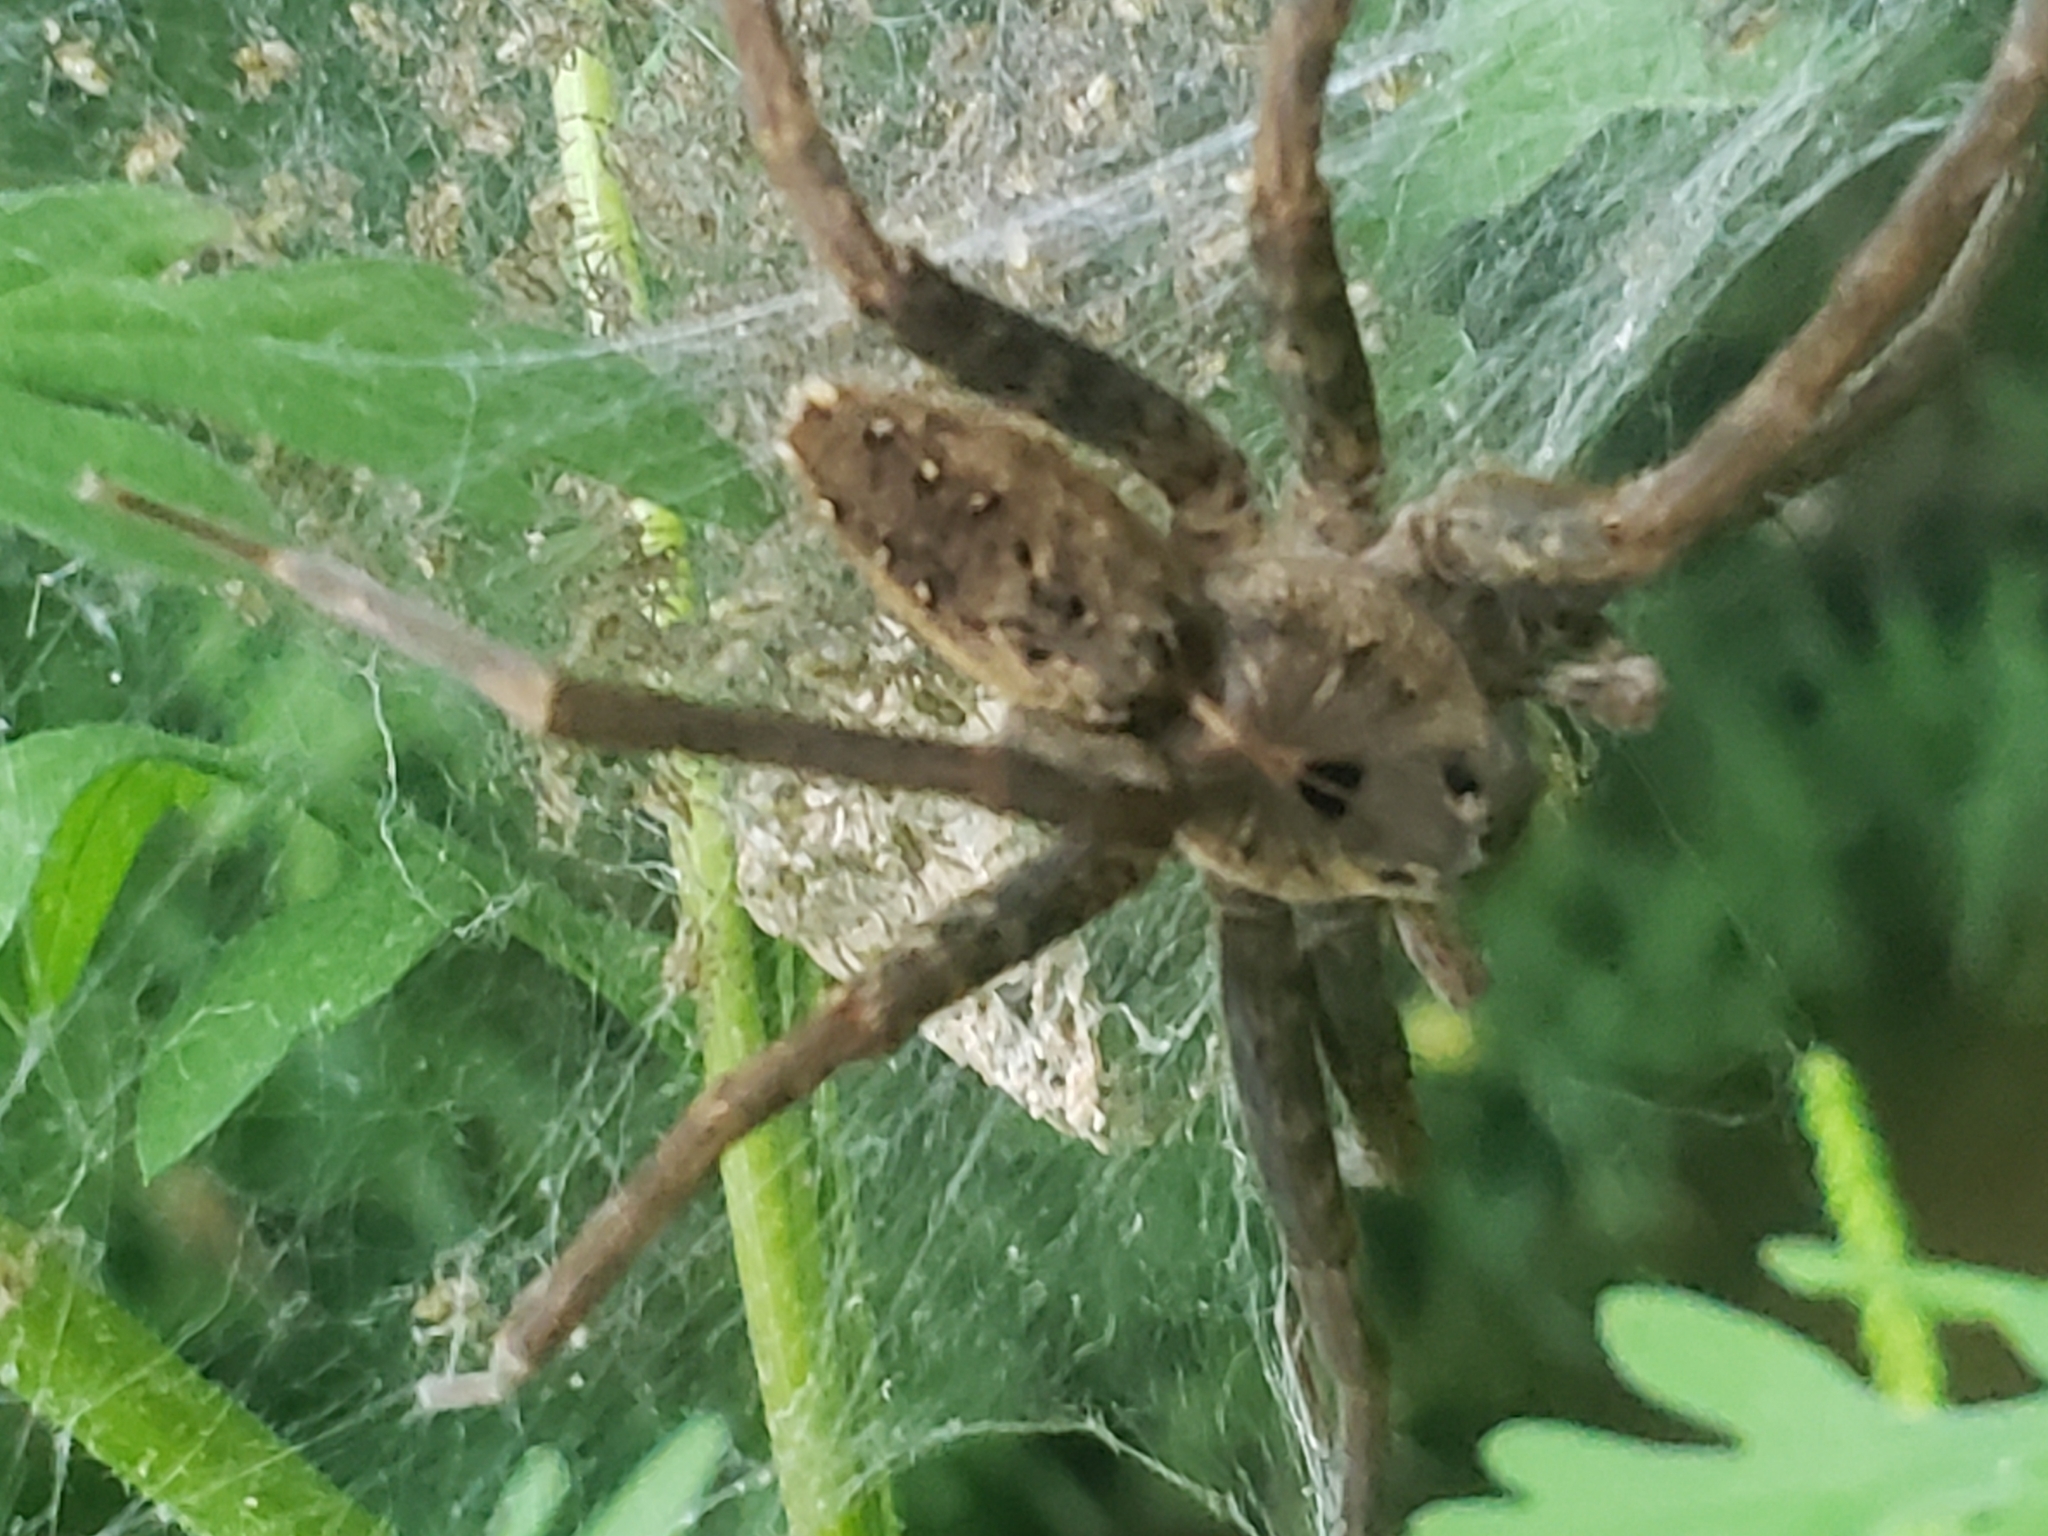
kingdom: Animalia
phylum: Arthropoda
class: Arachnida
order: Araneae
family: Pisauridae
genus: Dolomedes
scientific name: Dolomedes vittatus
